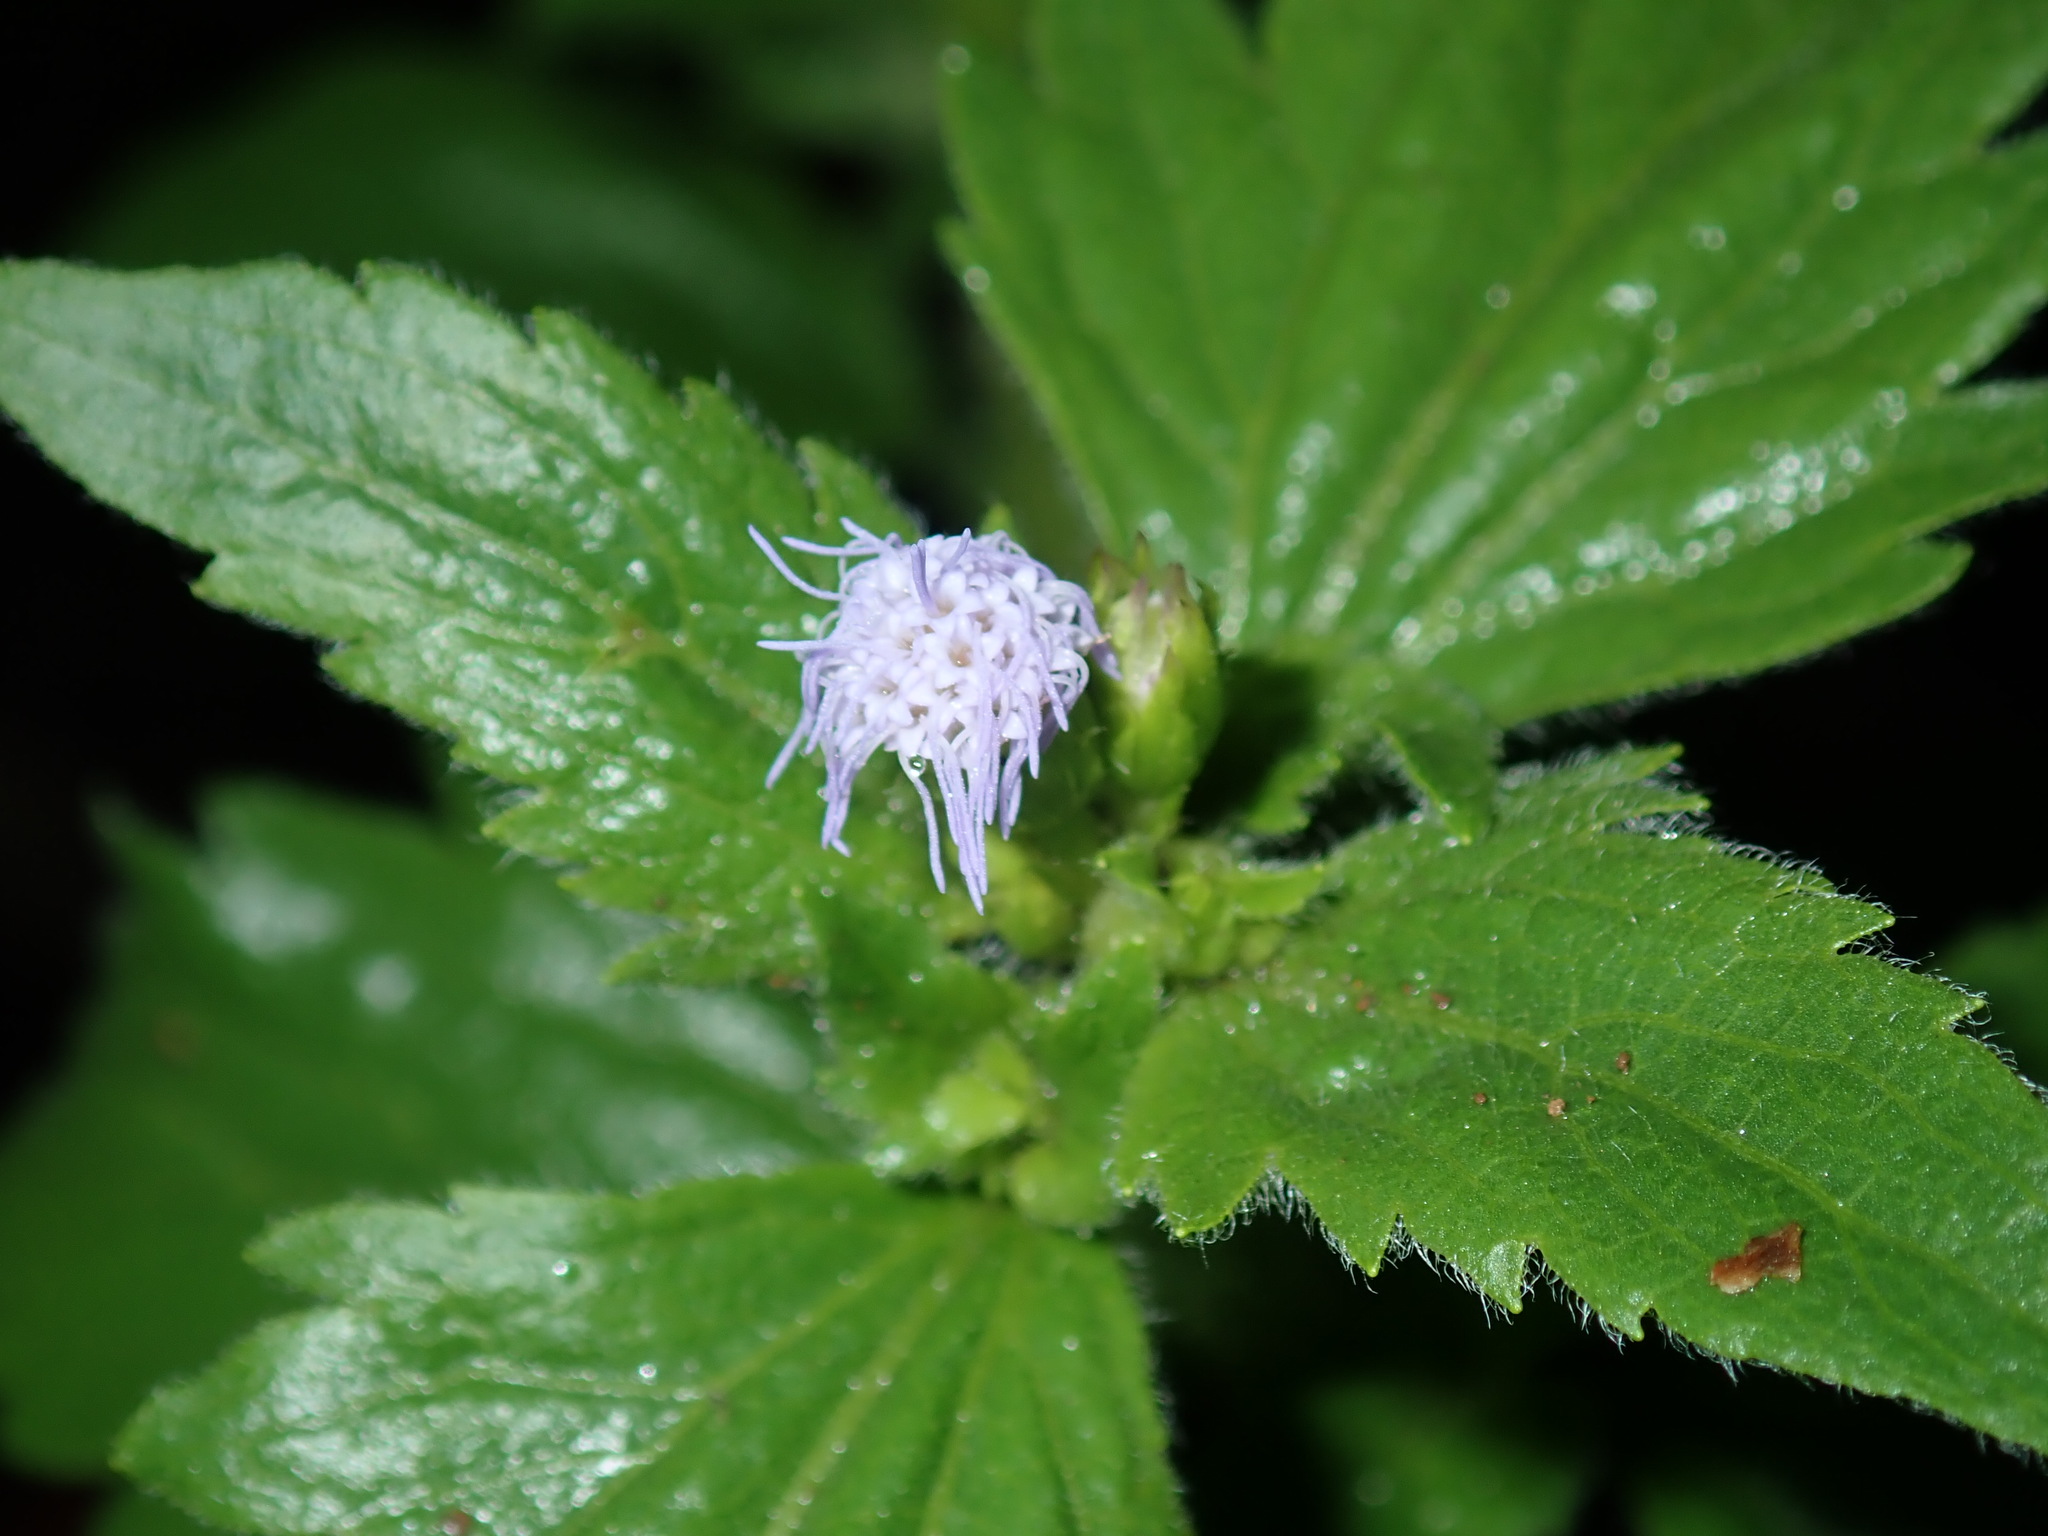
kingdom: Plantae
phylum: Tracheophyta
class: Magnoliopsida
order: Asterales
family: Asteraceae
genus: Praxelis
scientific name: Praxelis clematidea
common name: Praxelis
